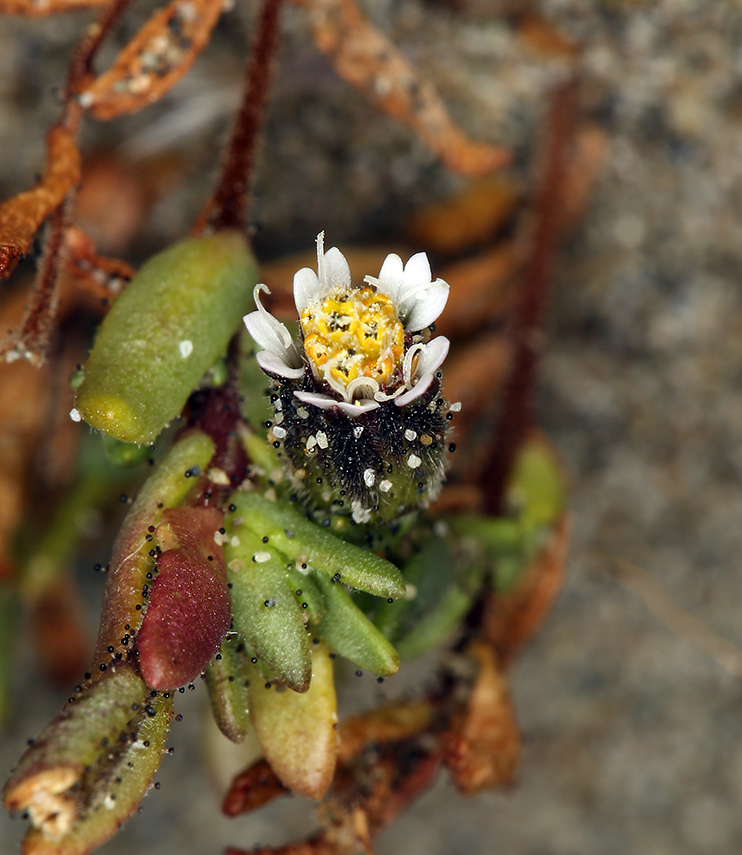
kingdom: Plantae
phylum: Tracheophyta
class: Magnoliopsida
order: Asterales
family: Asteraceae
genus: Layia
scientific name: Layia carnosa
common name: Beach layia
